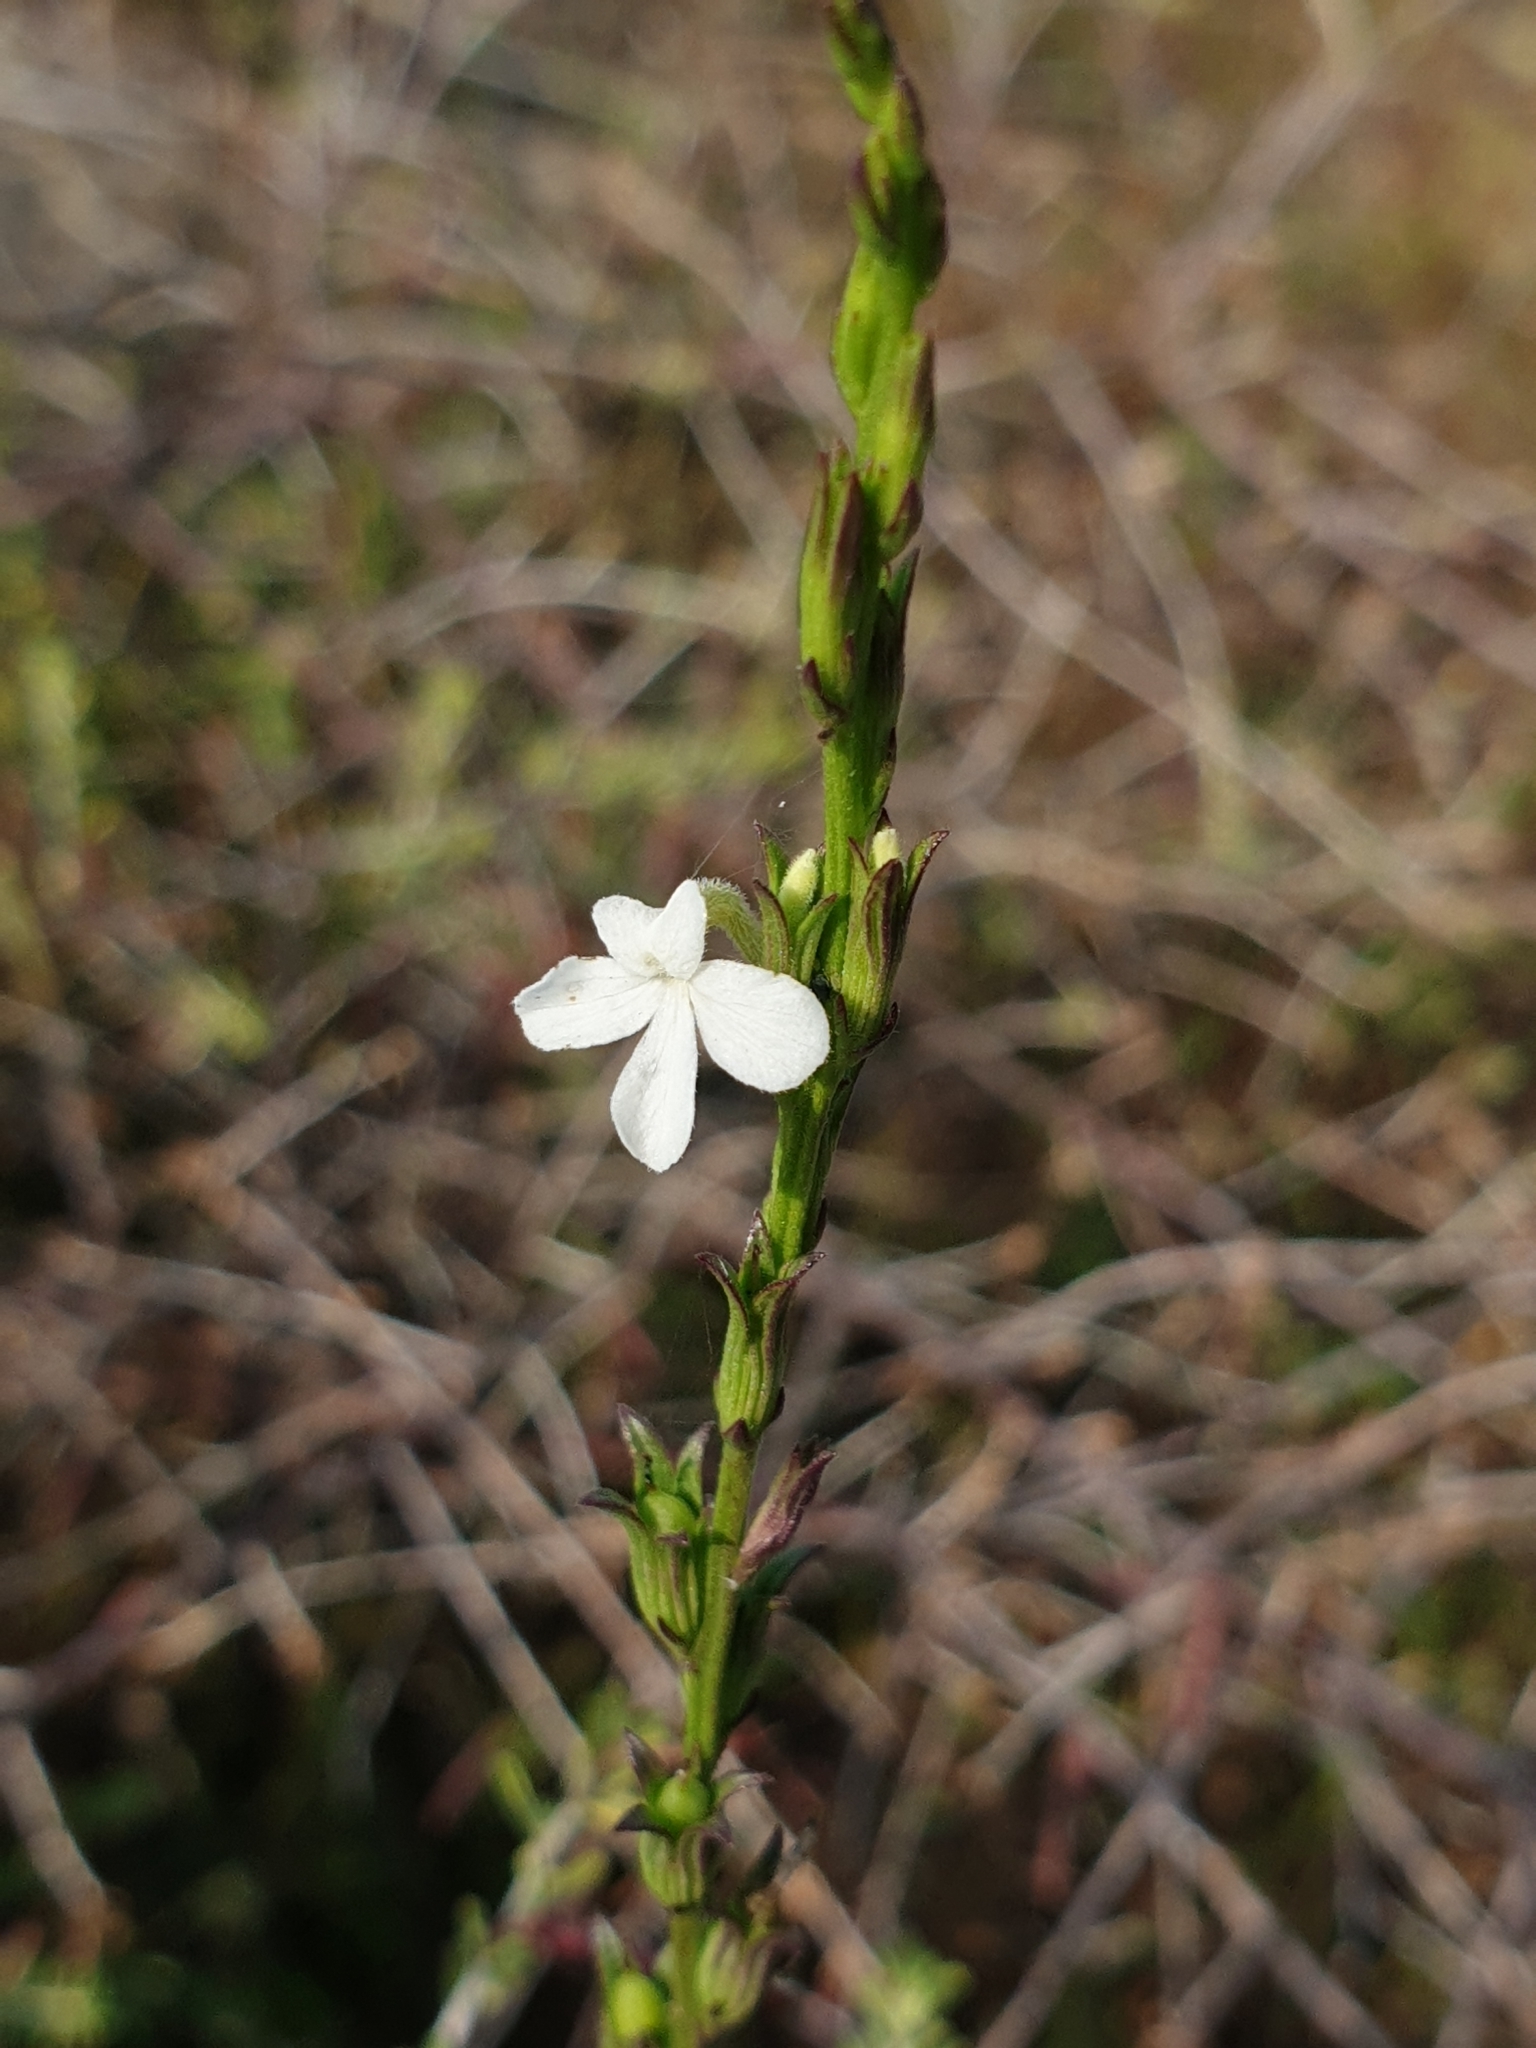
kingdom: Plantae
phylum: Tracheophyta
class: Magnoliopsida
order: Lamiales
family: Orobanchaceae
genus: Striga
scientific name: Striga angustifolia
